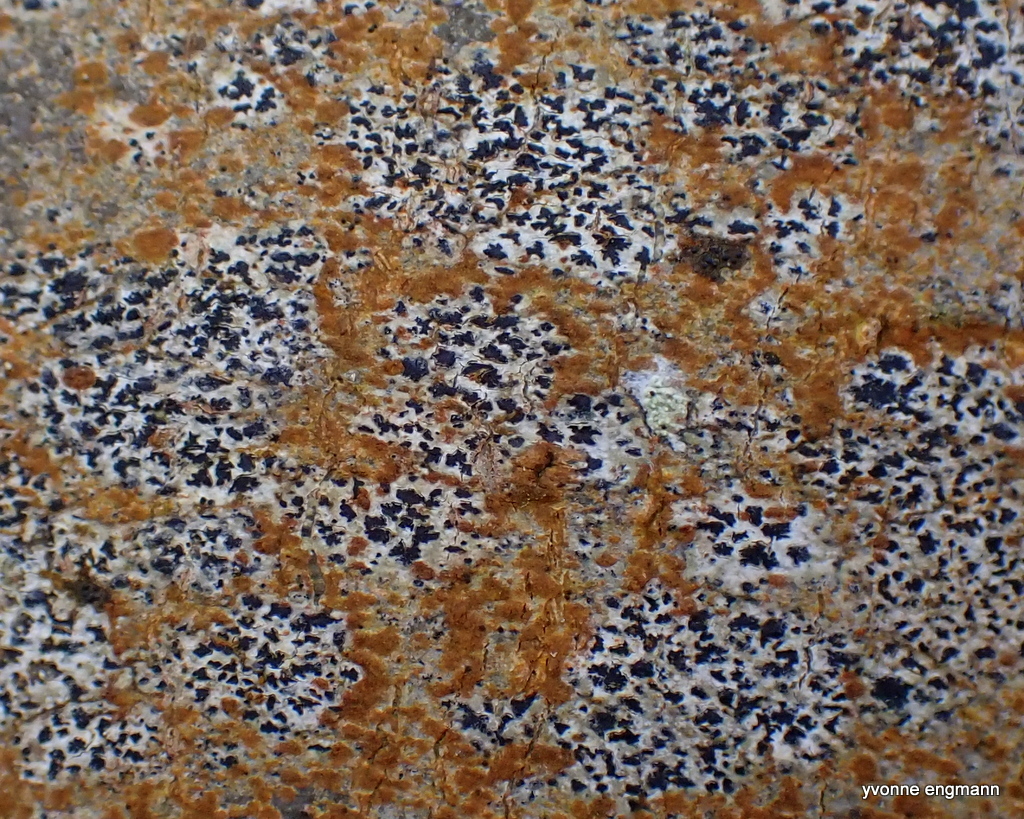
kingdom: Fungi
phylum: Ascomycota
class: Arthoniomycetes
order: Arthoniales
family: Arthoniaceae
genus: Arthonia
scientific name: Arthonia radiata
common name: Asterisk lichen
